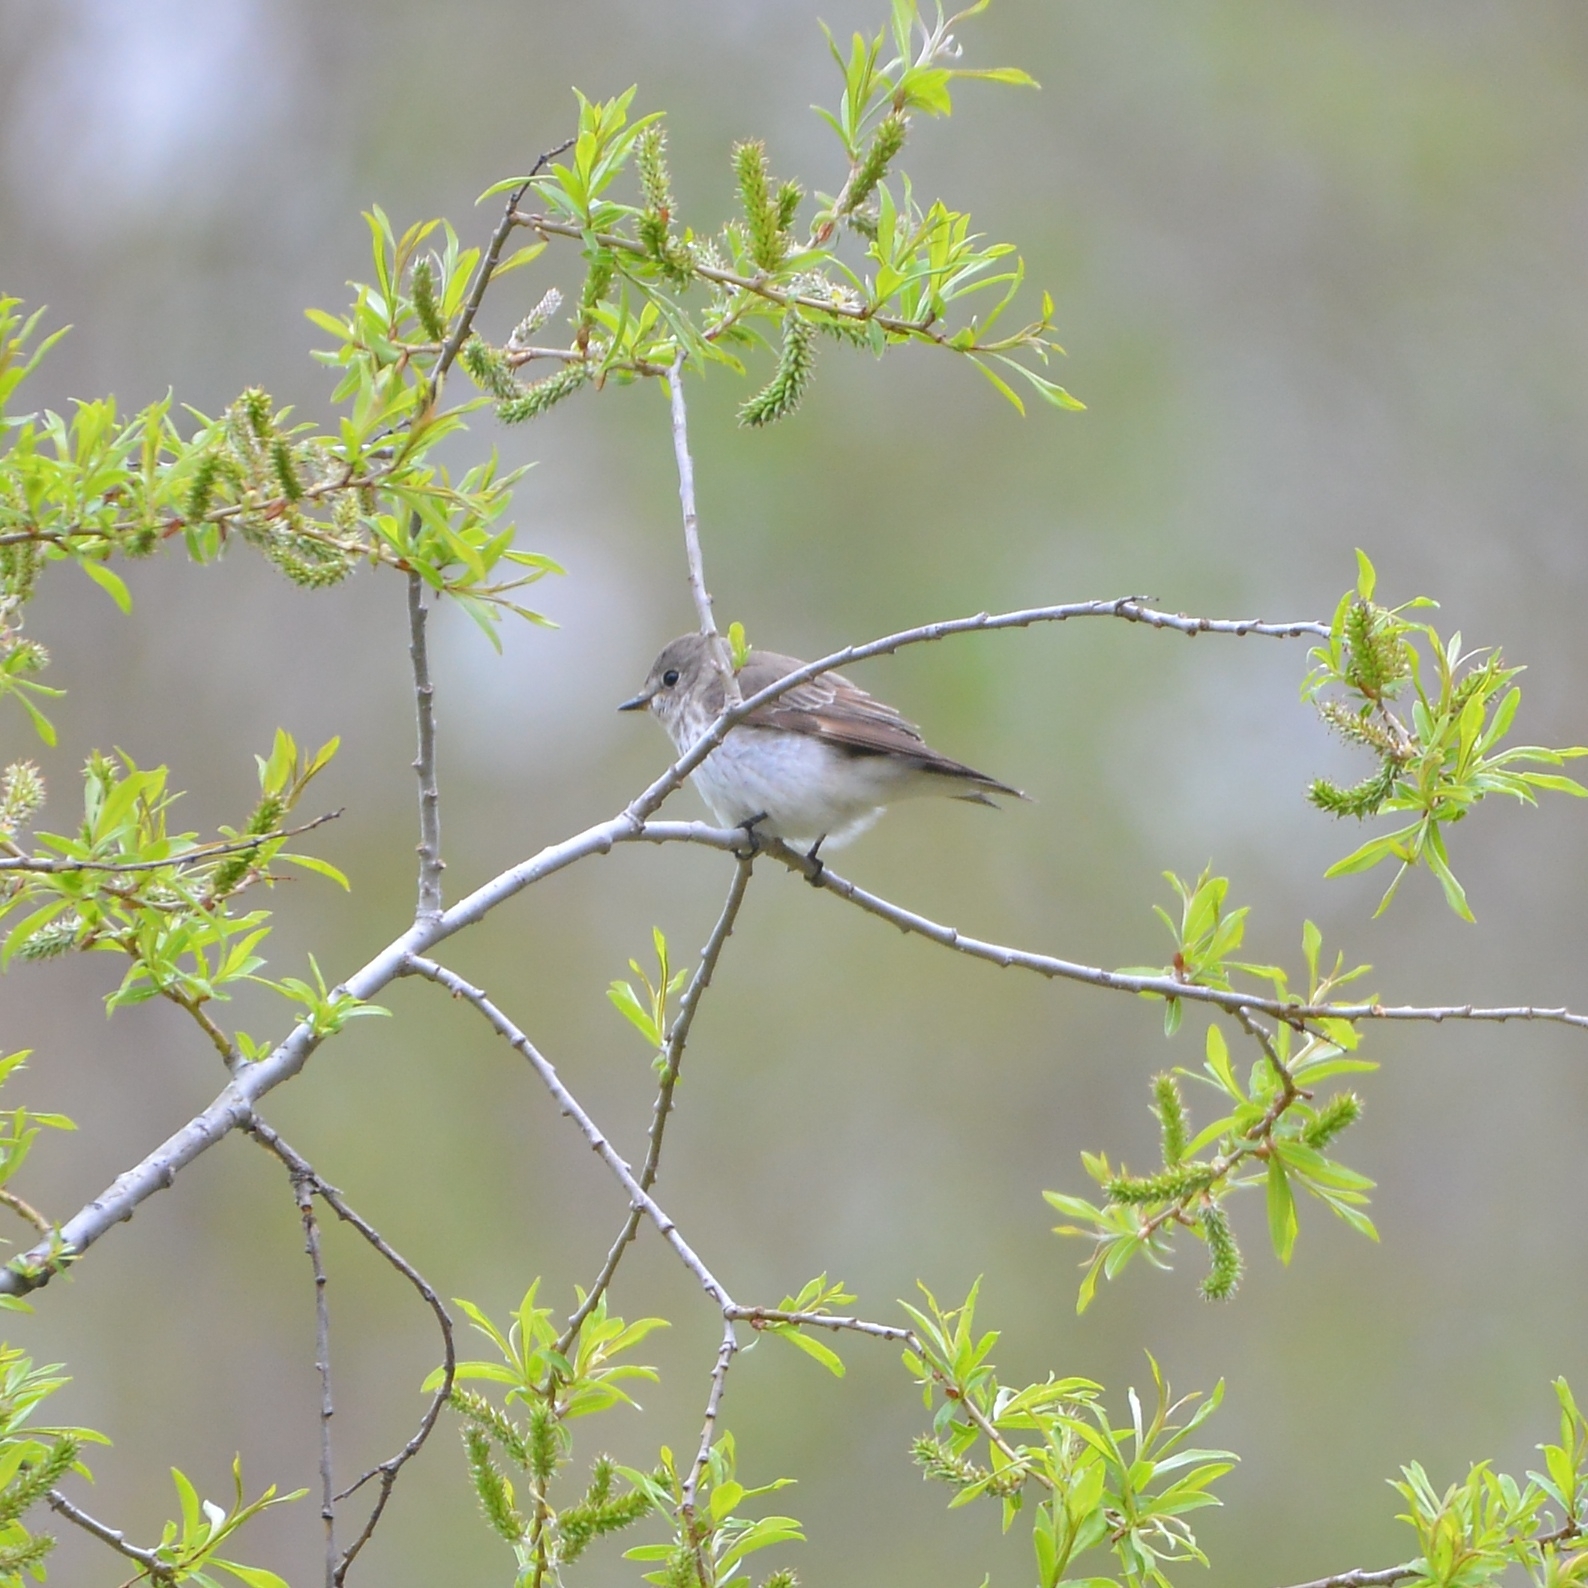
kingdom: Animalia
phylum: Chordata
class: Aves
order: Passeriformes
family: Muscicapidae
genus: Muscicapa
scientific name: Muscicapa sibirica
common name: Dark-sided flycatcher
